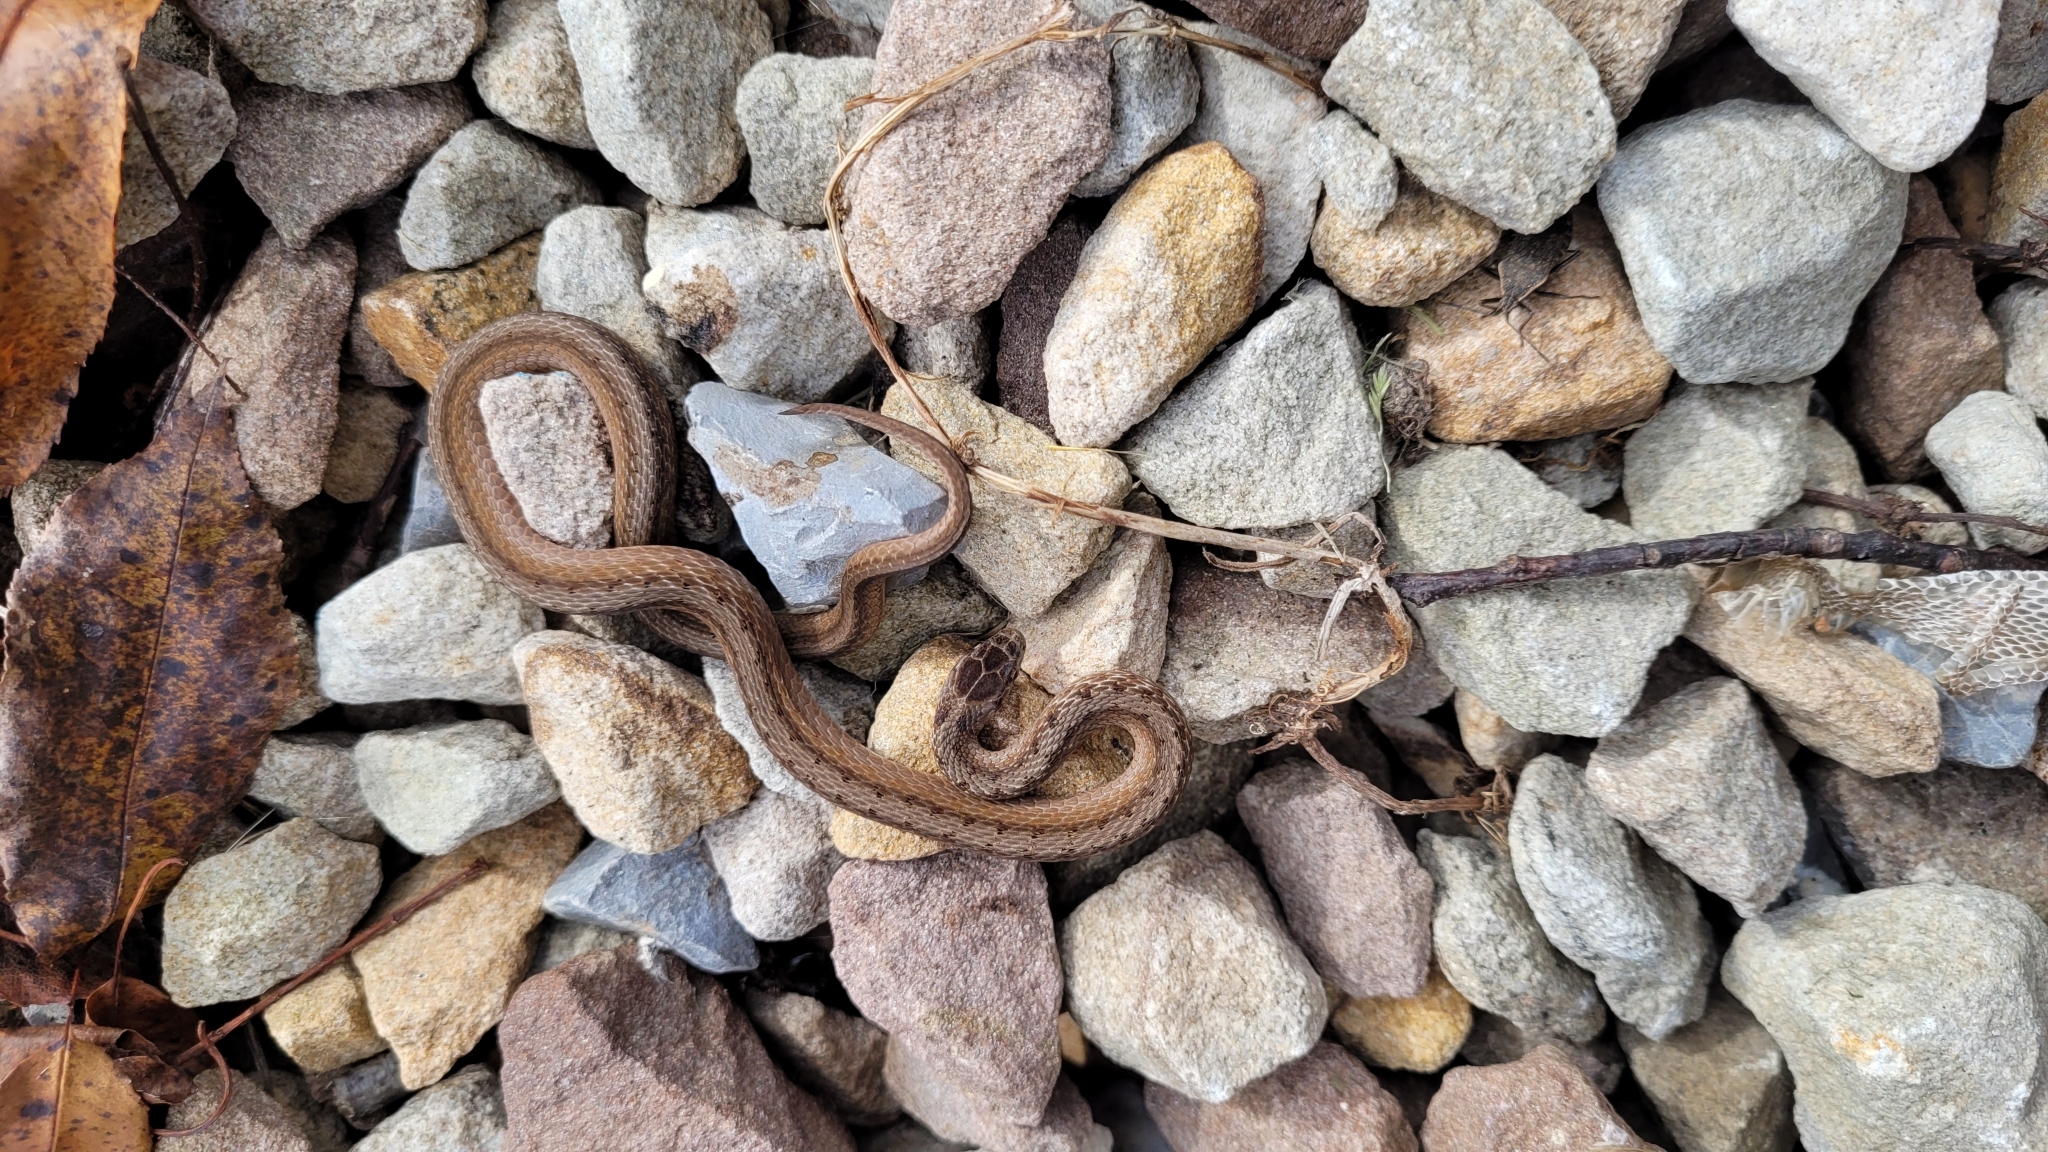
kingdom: Animalia
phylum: Chordata
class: Squamata
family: Colubridae
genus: Storeria
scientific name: Storeria dekayi
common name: (dekay’s) brown snake
